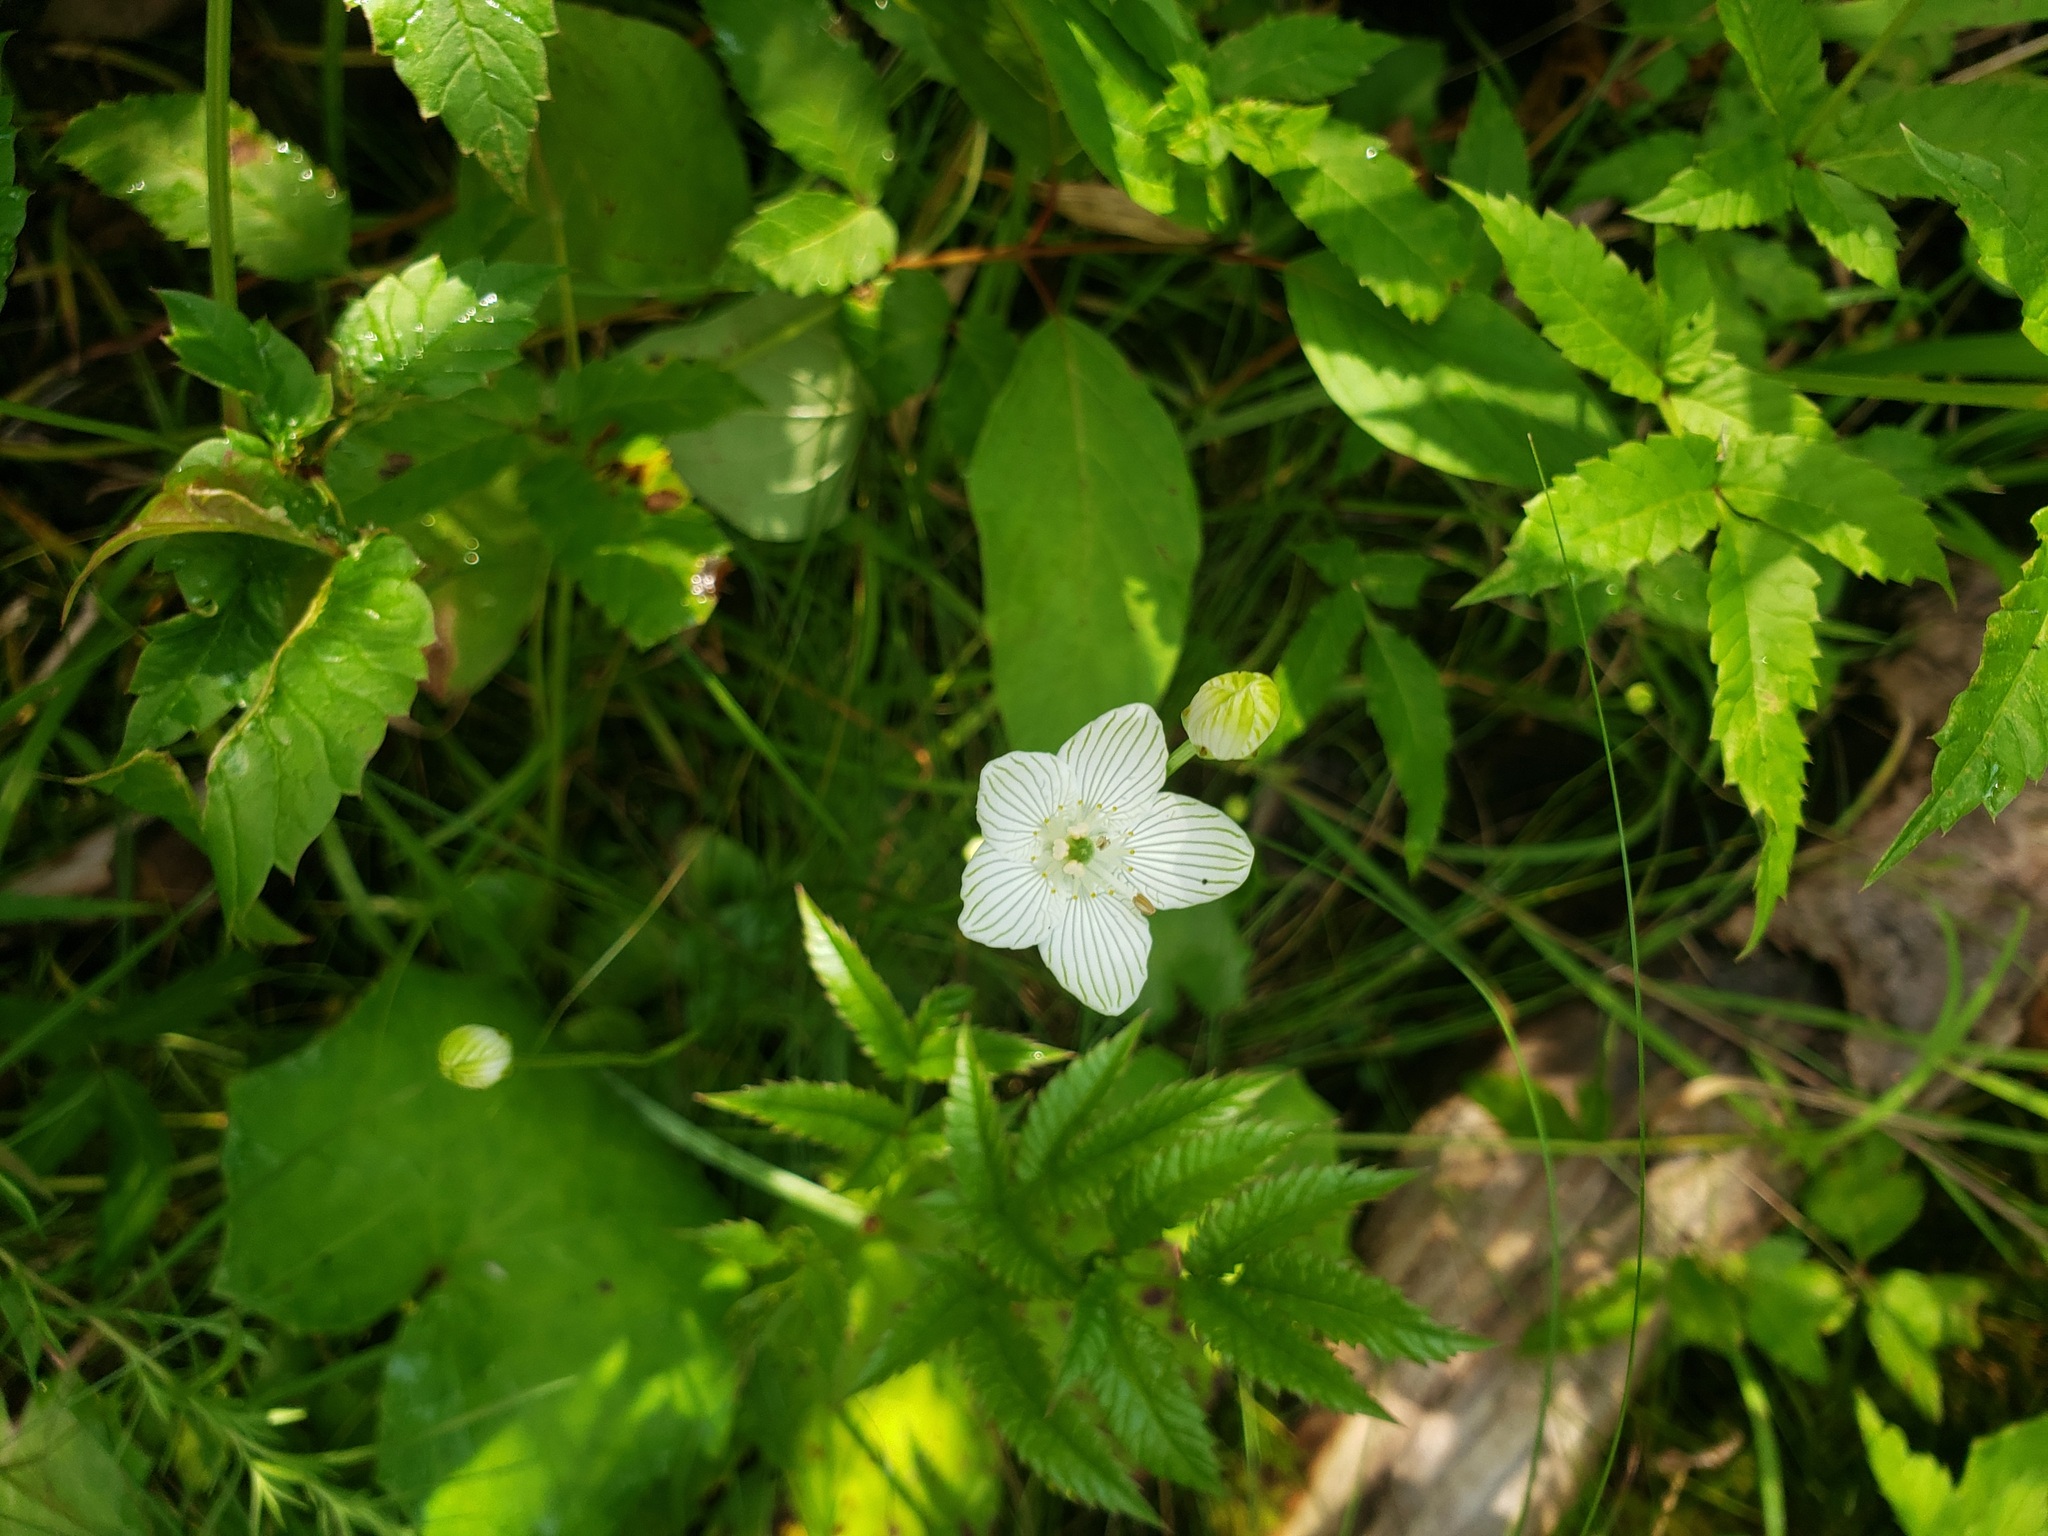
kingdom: Plantae
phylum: Tracheophyta
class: Magnoliopsida
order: Celastrales
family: Parnassiaceae
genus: Parnassia
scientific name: Parnassia glauca
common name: American grass-of-parnassus
